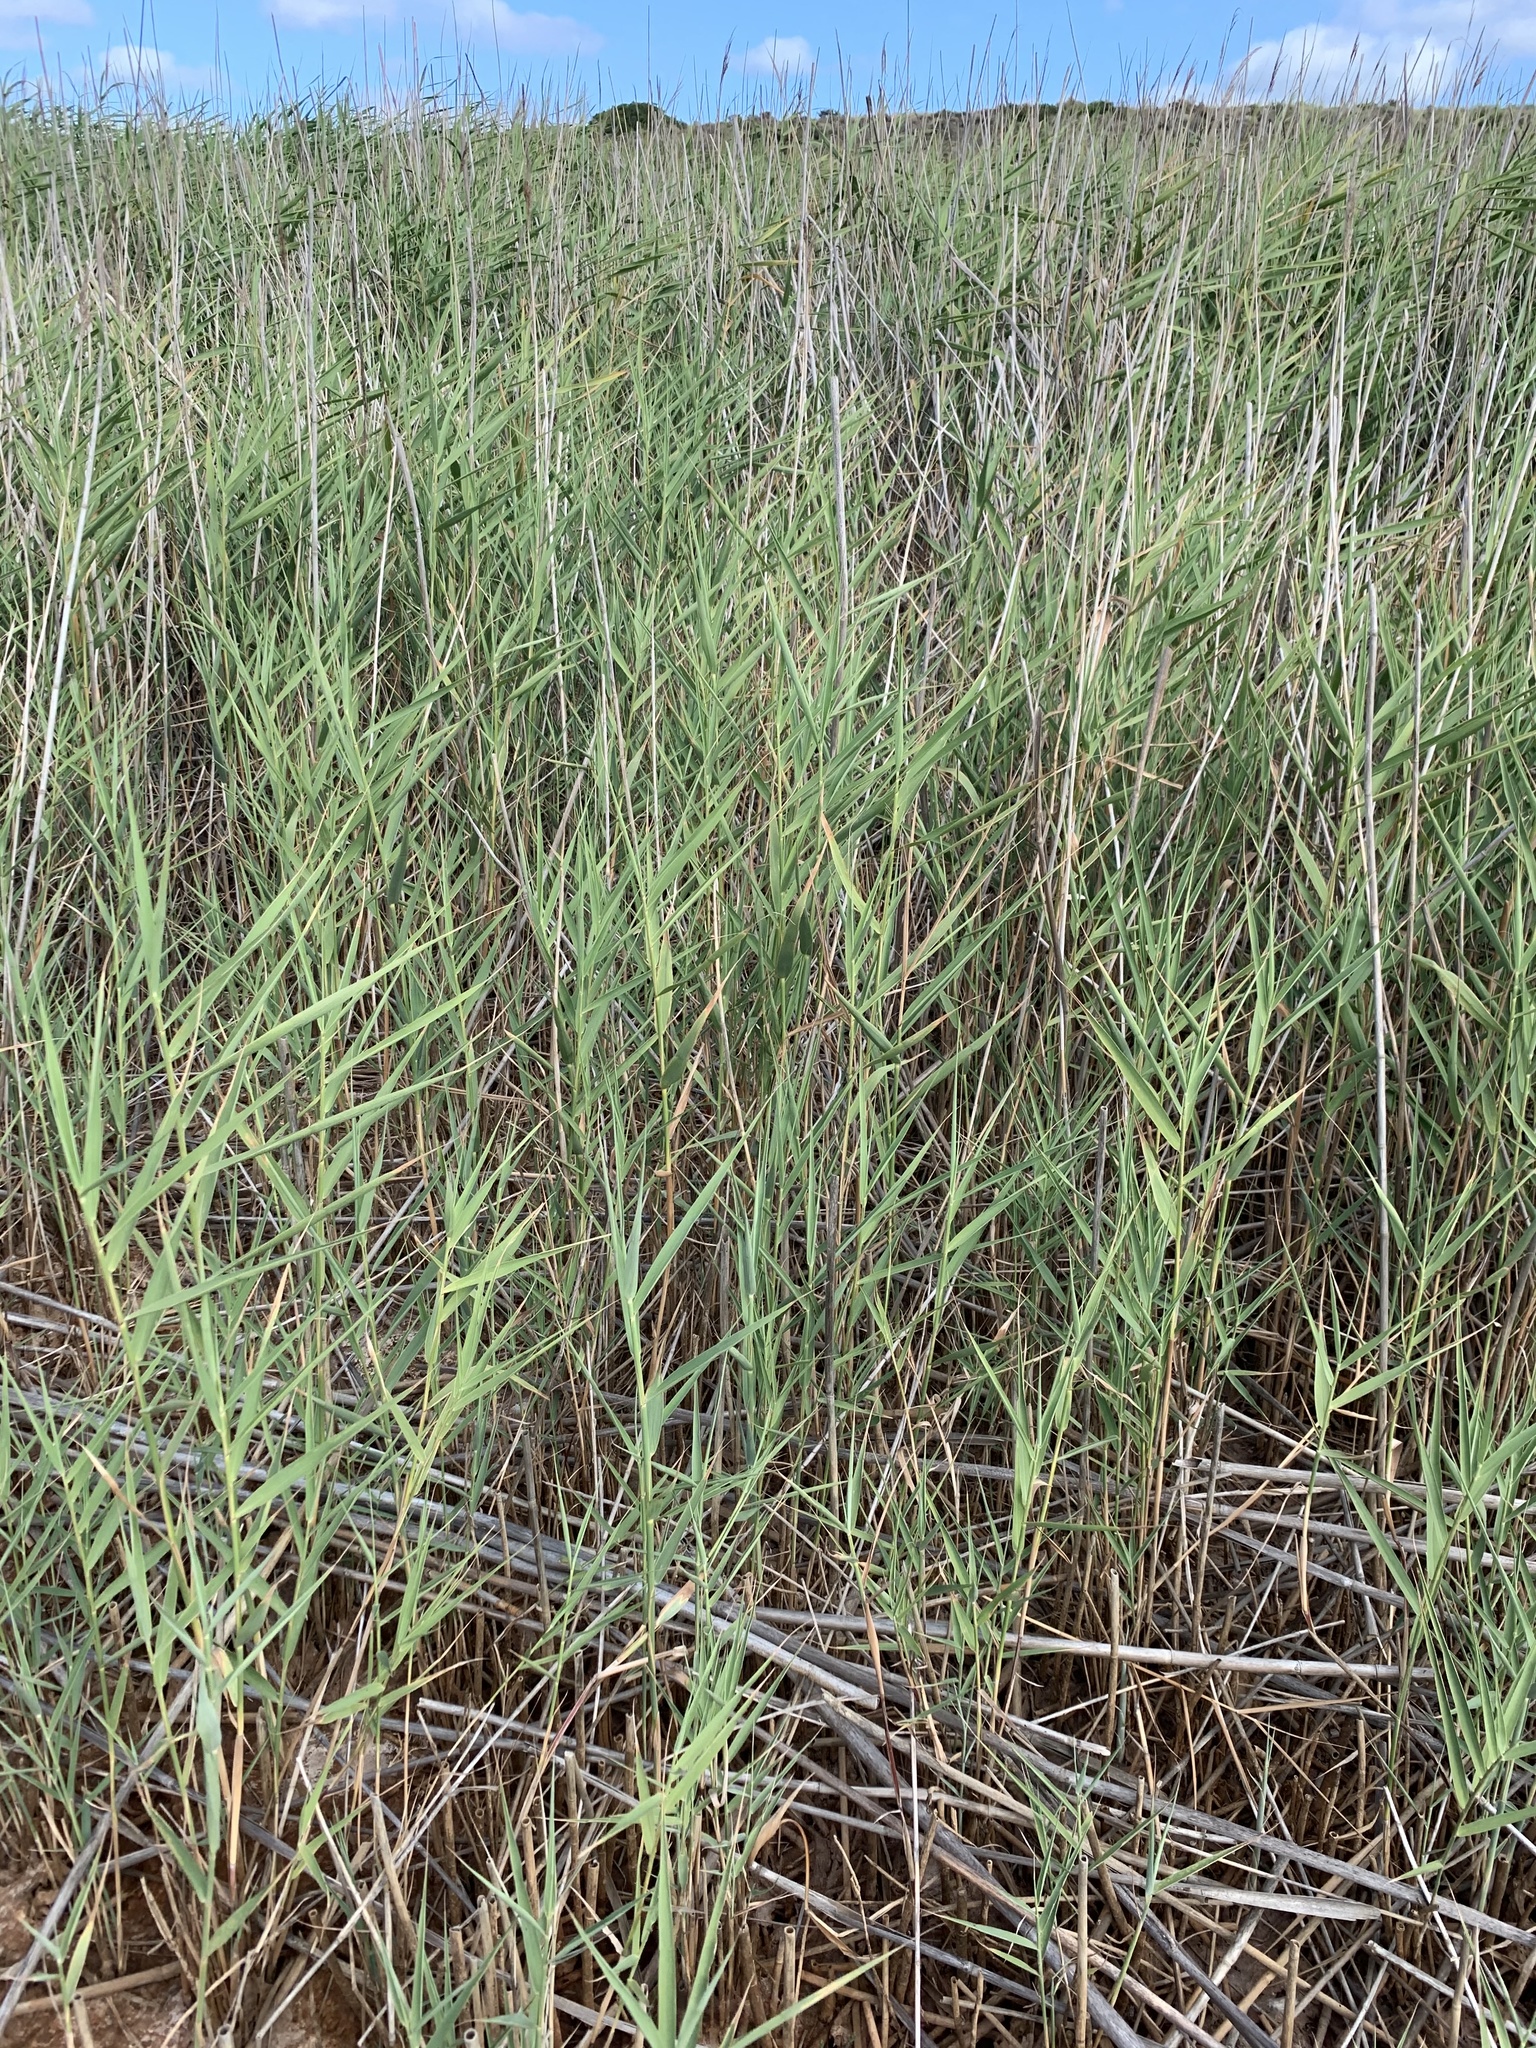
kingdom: Plantae
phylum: Tracheophyta
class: Liliopsida
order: Poales
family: Poaceae
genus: Phragmites
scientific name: Phragmites australis
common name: Common reed
